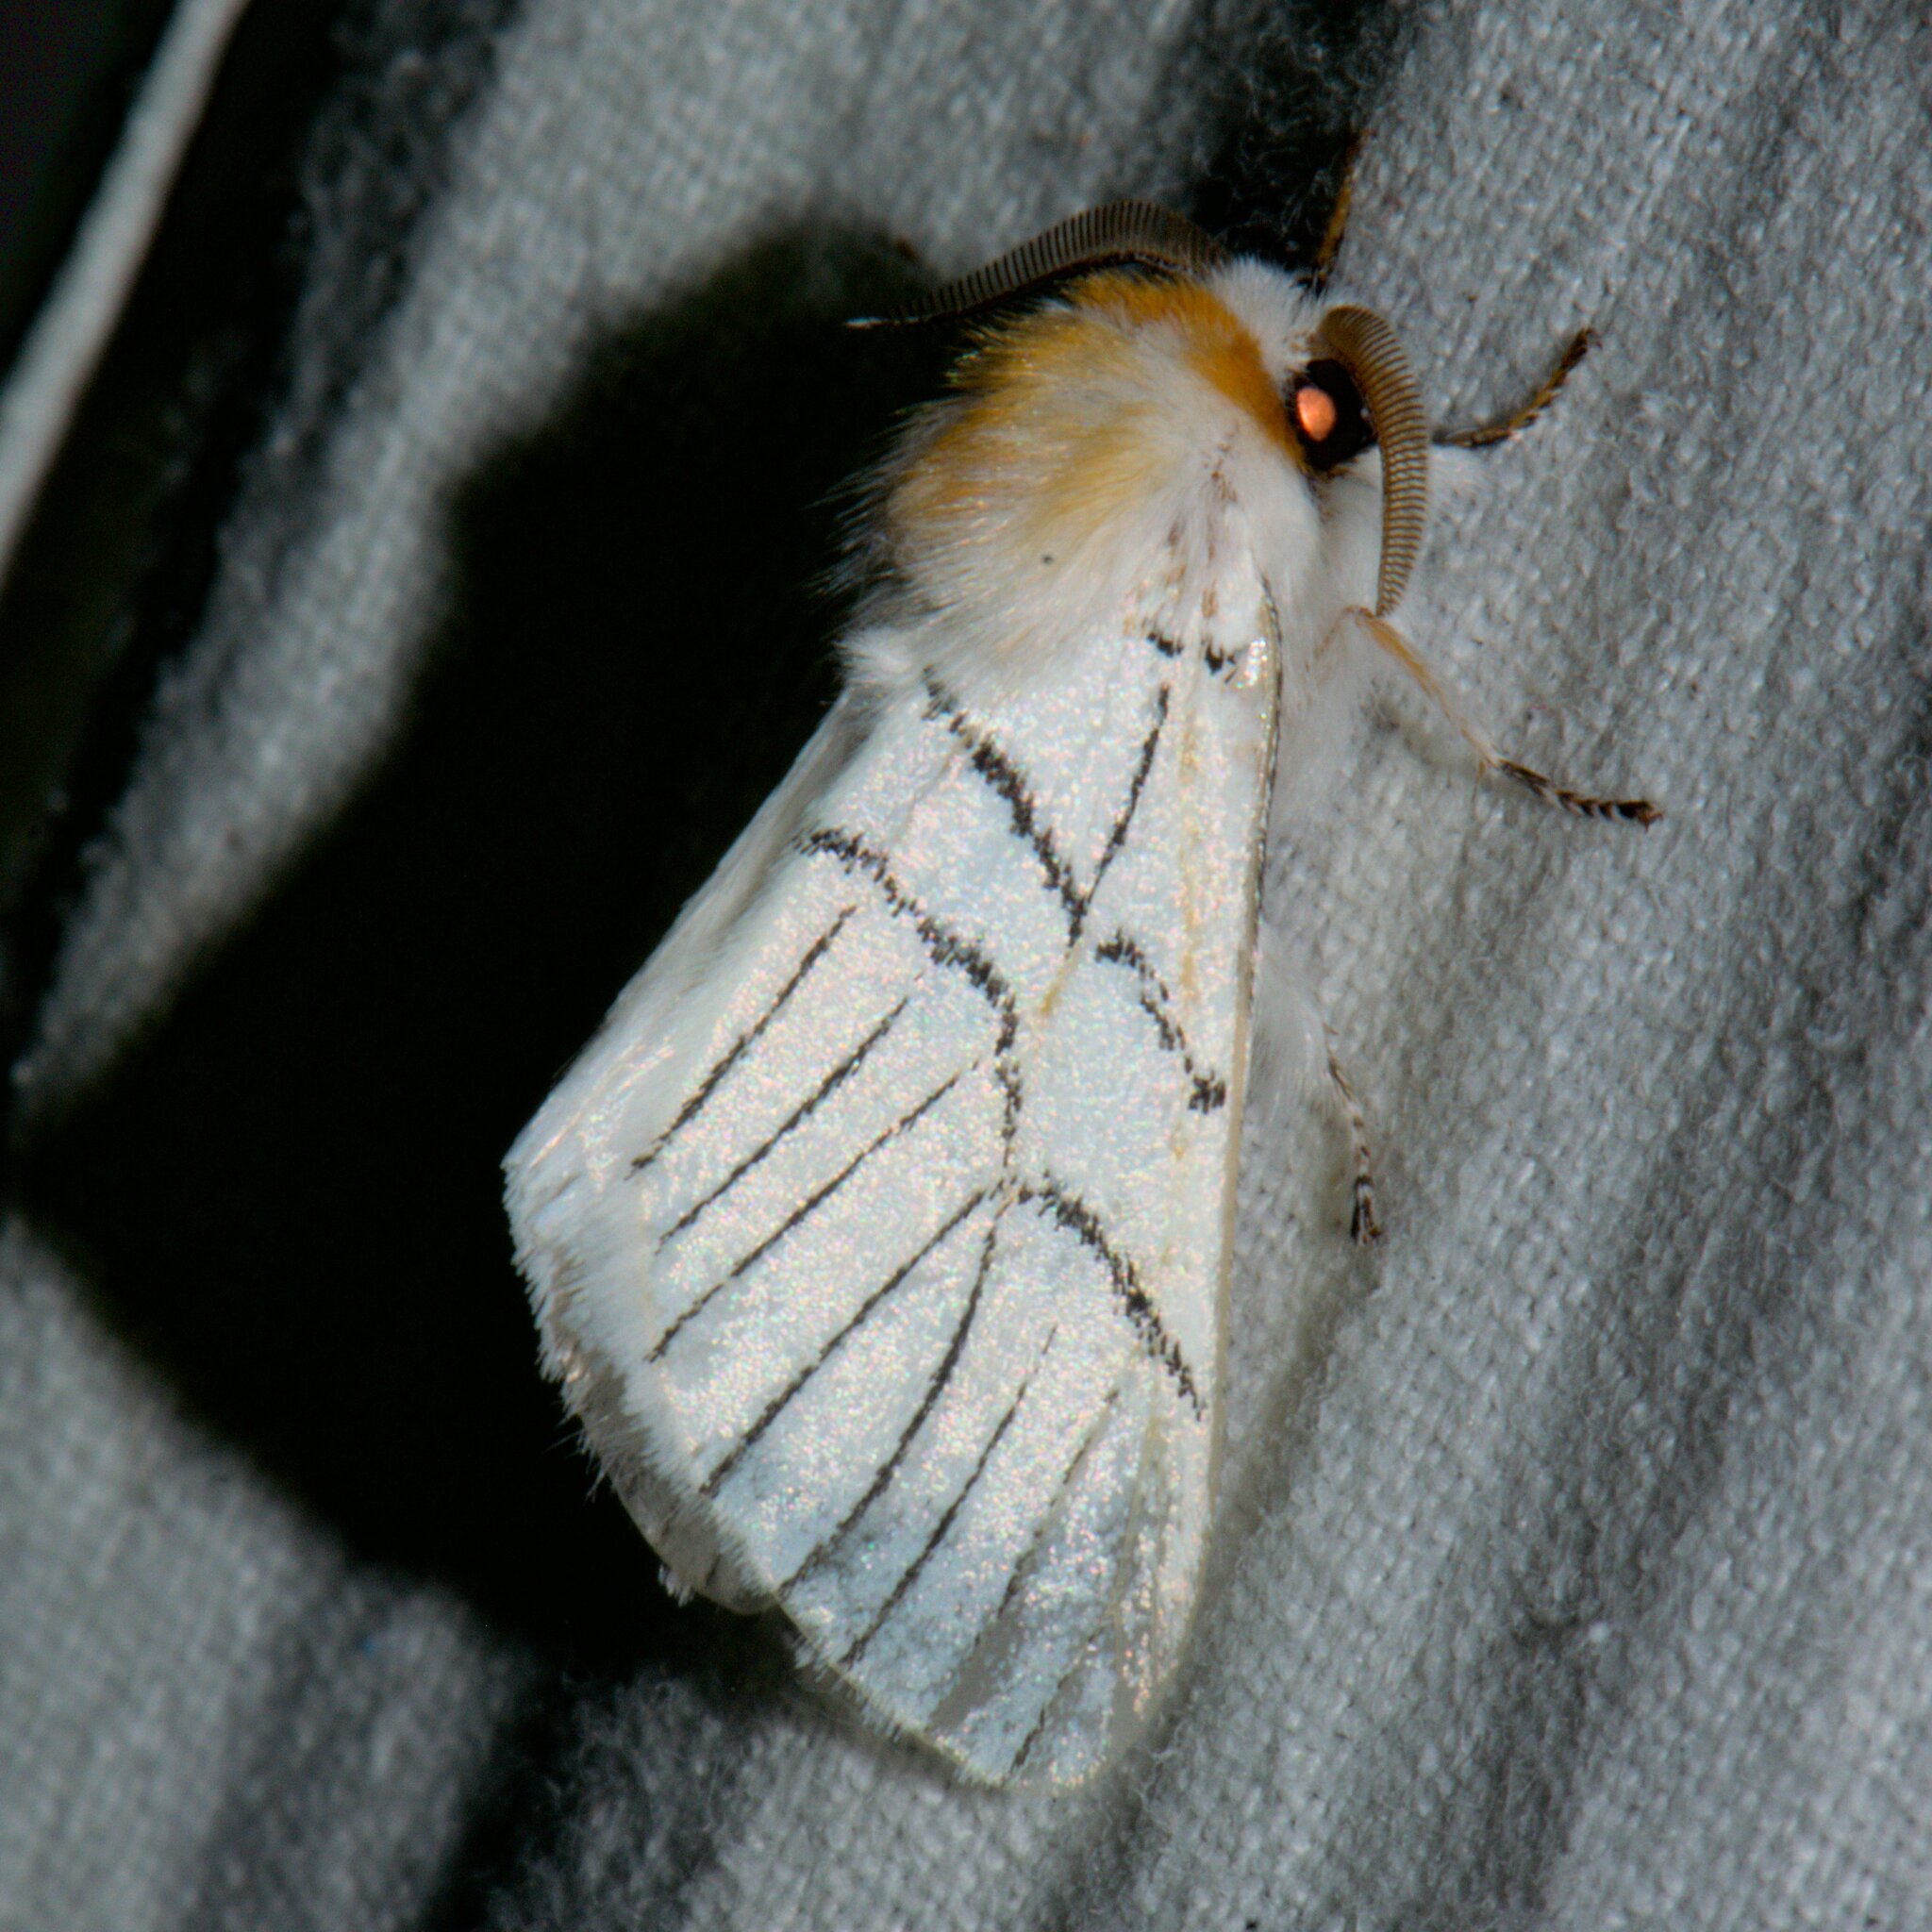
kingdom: Animalia
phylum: Arthropoda
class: Insecta
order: Lepidoptera
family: Notodontidae
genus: Oligoclona
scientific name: Oligoclona chrysolopha
